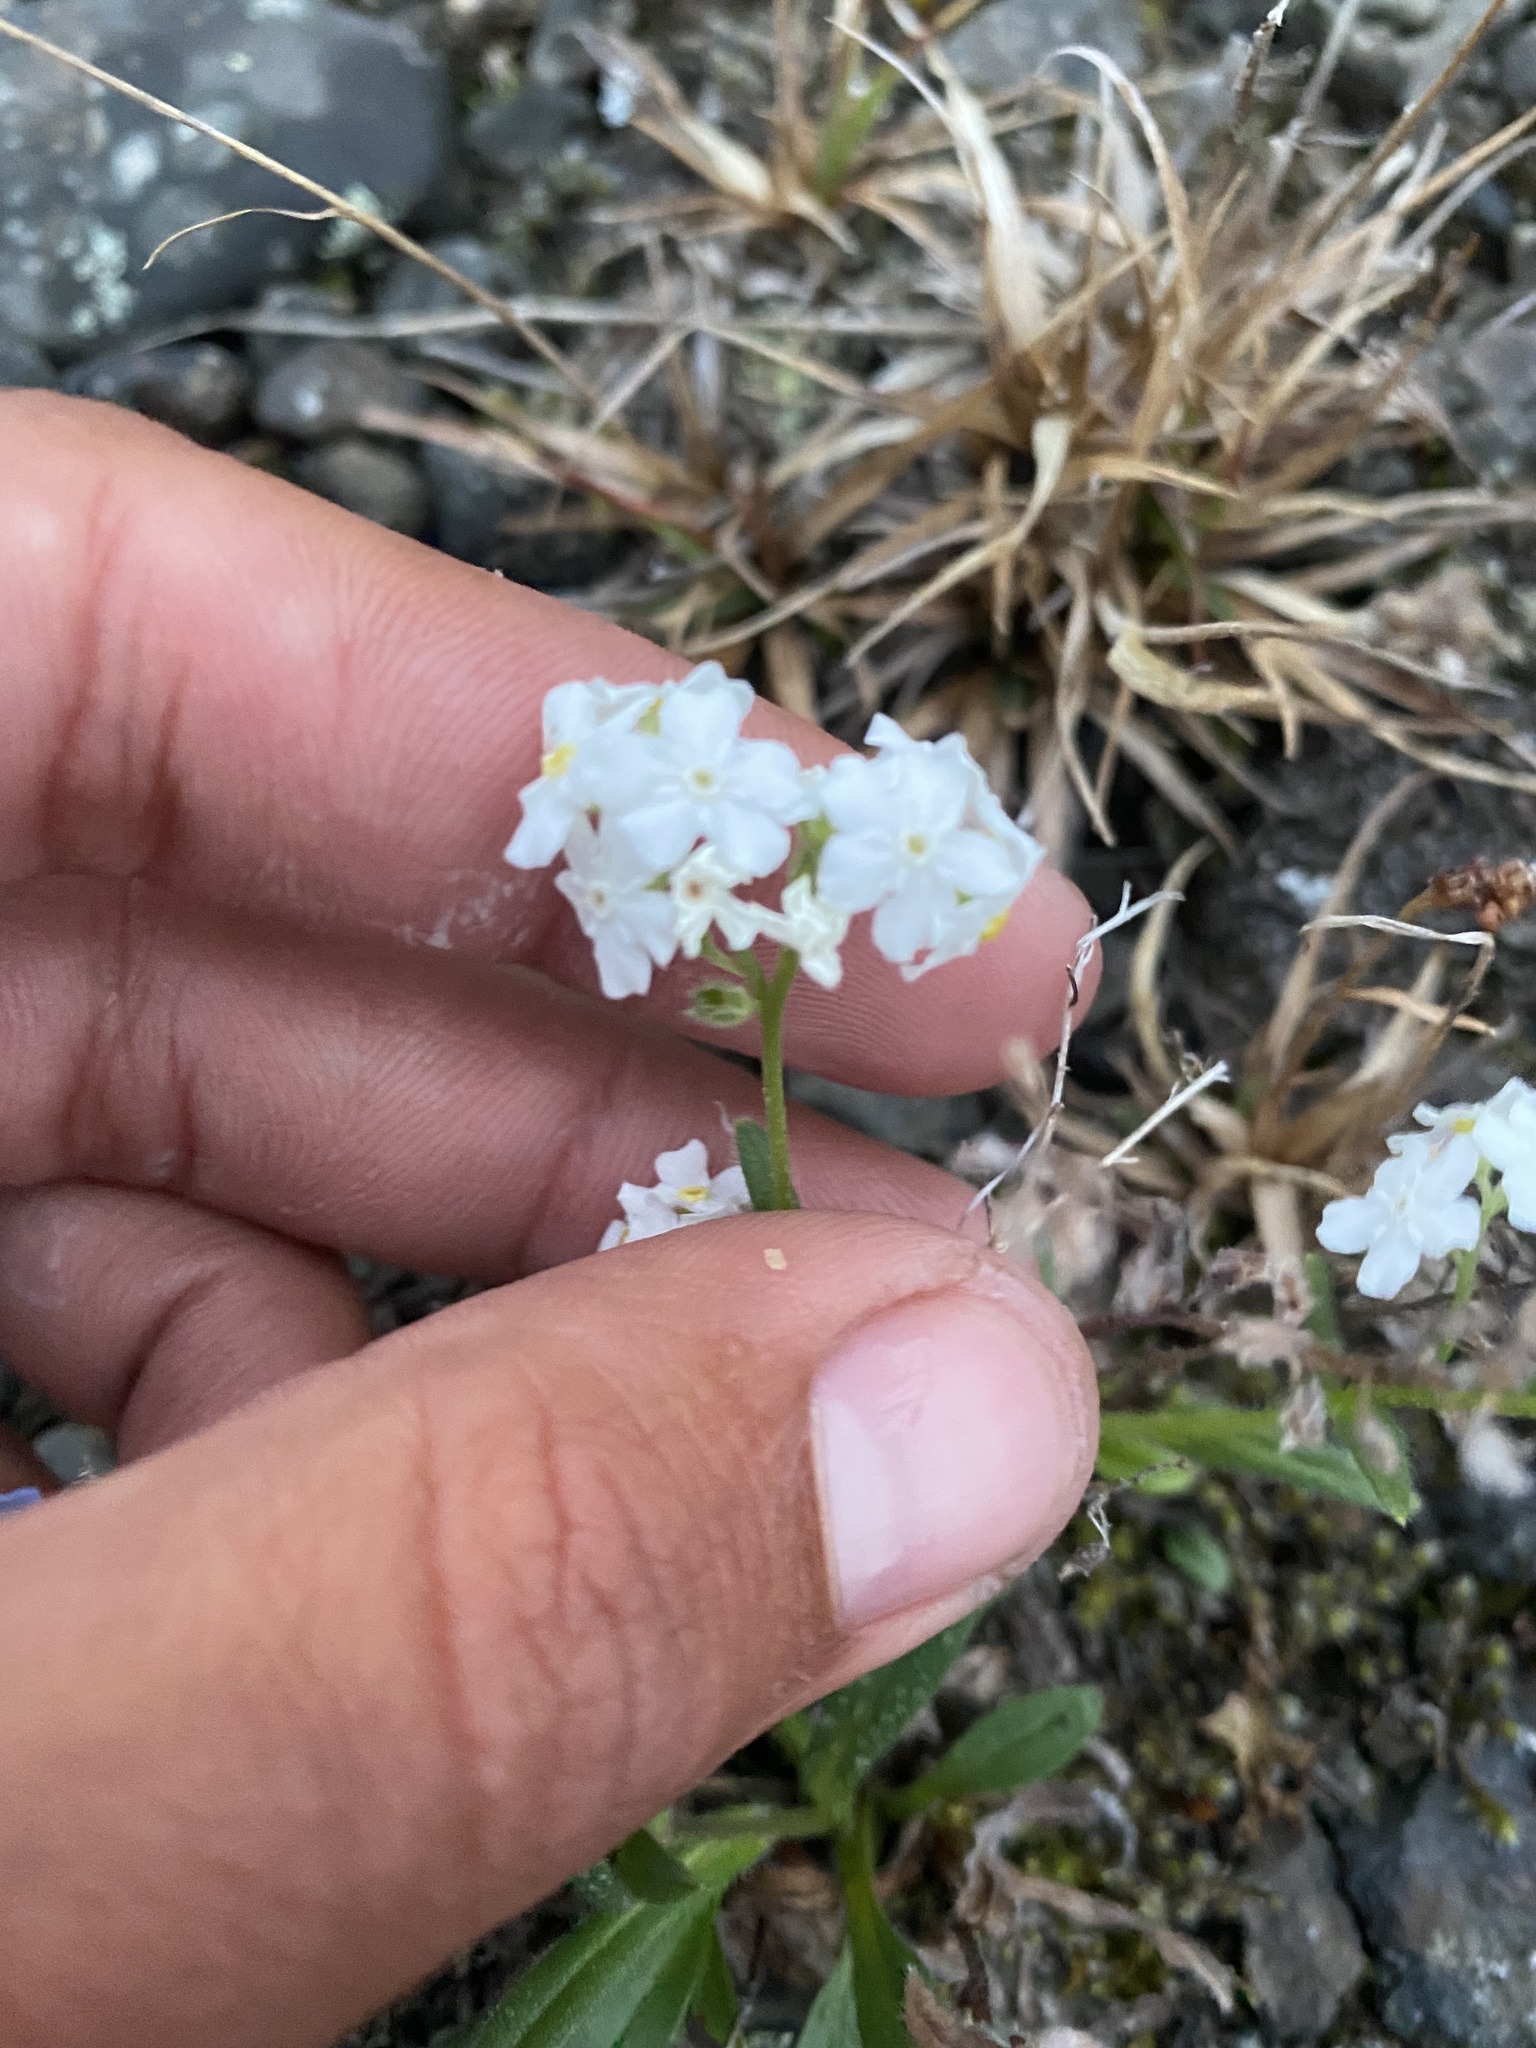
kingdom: Plantae
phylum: Tracheophyta
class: Magnoliopsida
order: Boraginales
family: Boraginaceae
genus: Myosotis
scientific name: Myosotis asiatica
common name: Asian forget-me-not
